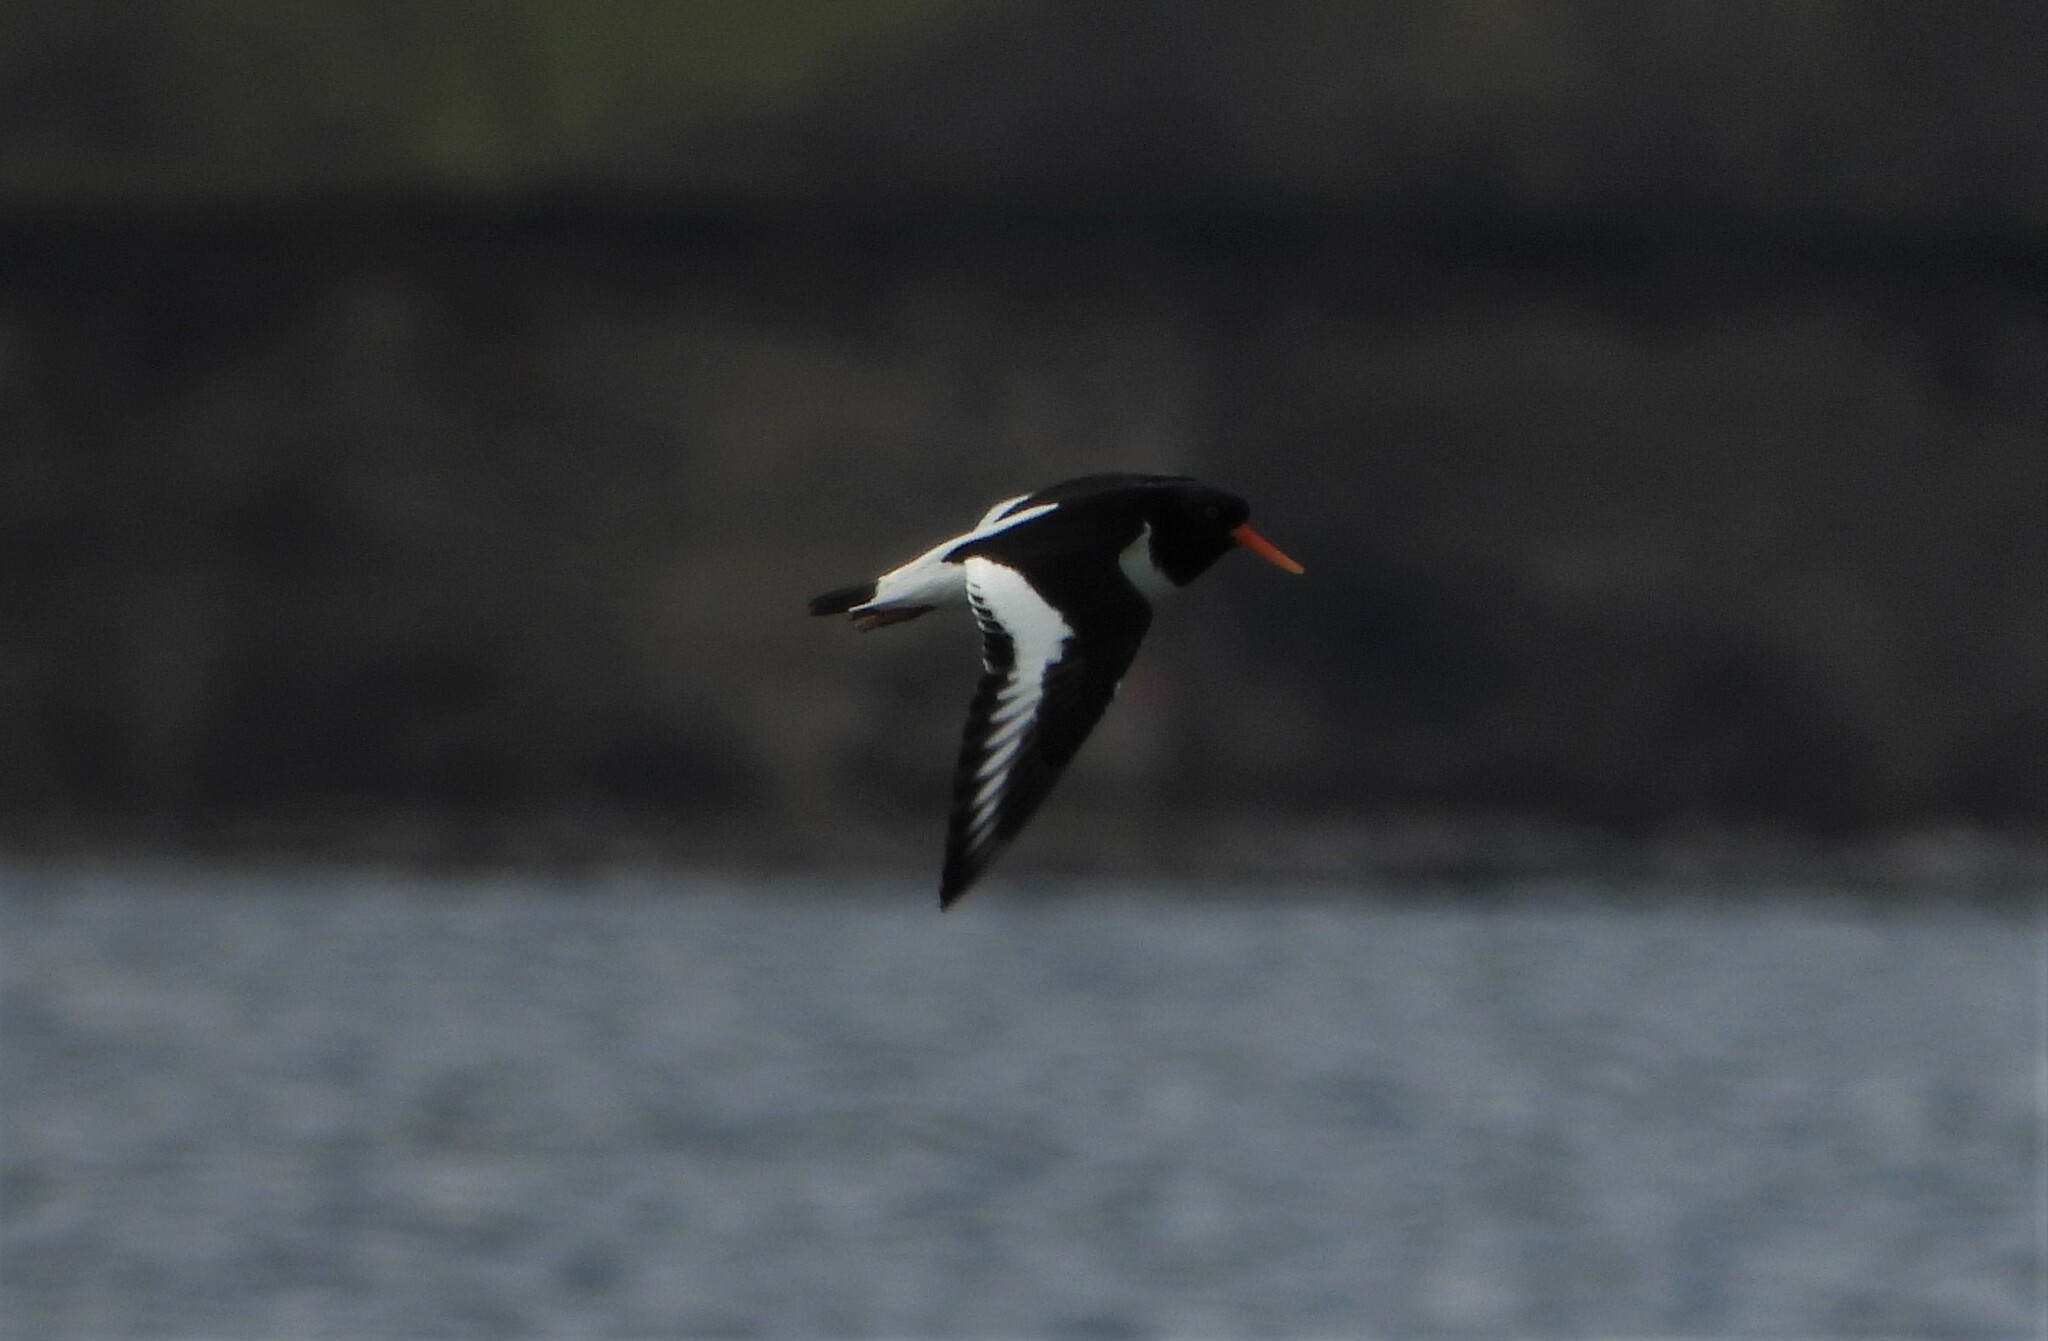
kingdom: Animalia
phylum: Chordata
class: Aves
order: Charadriiformes
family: Haematopodidae
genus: Haematopus
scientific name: Haematopus ostralegus
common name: Eurasian oystercatcher
